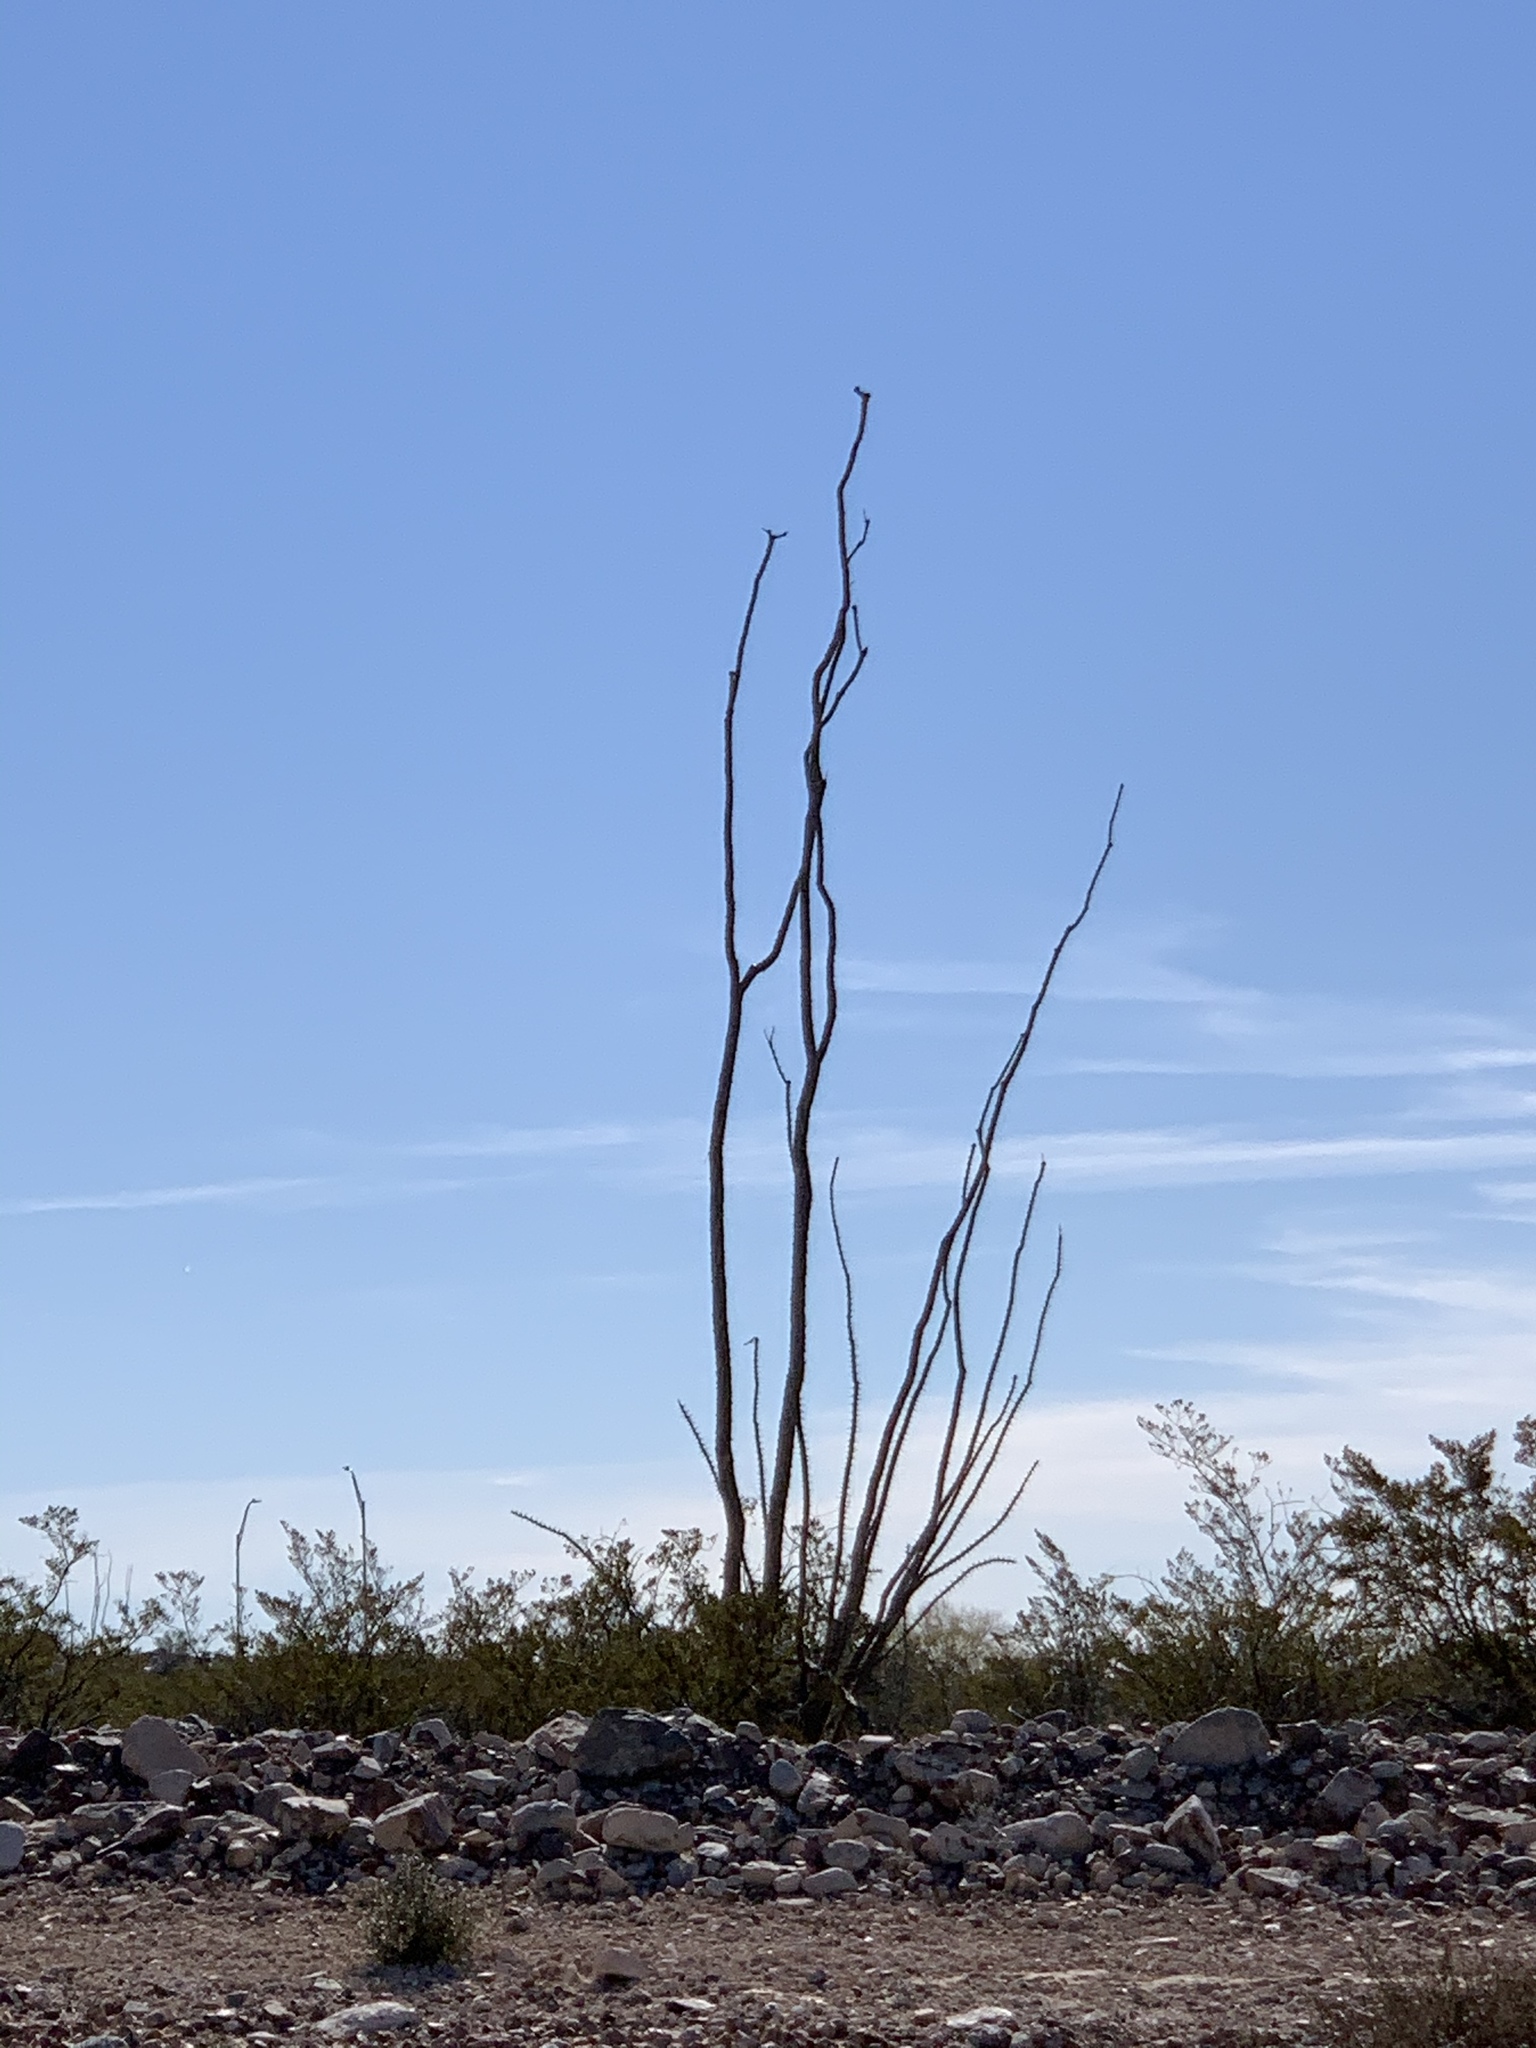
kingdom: Plantae
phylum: Tracheophyta
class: Magnoliopsida
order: Ericales
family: Fouquieriaceae
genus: Fouquieria
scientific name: Fouquieria splendens
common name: Vine-cactus
